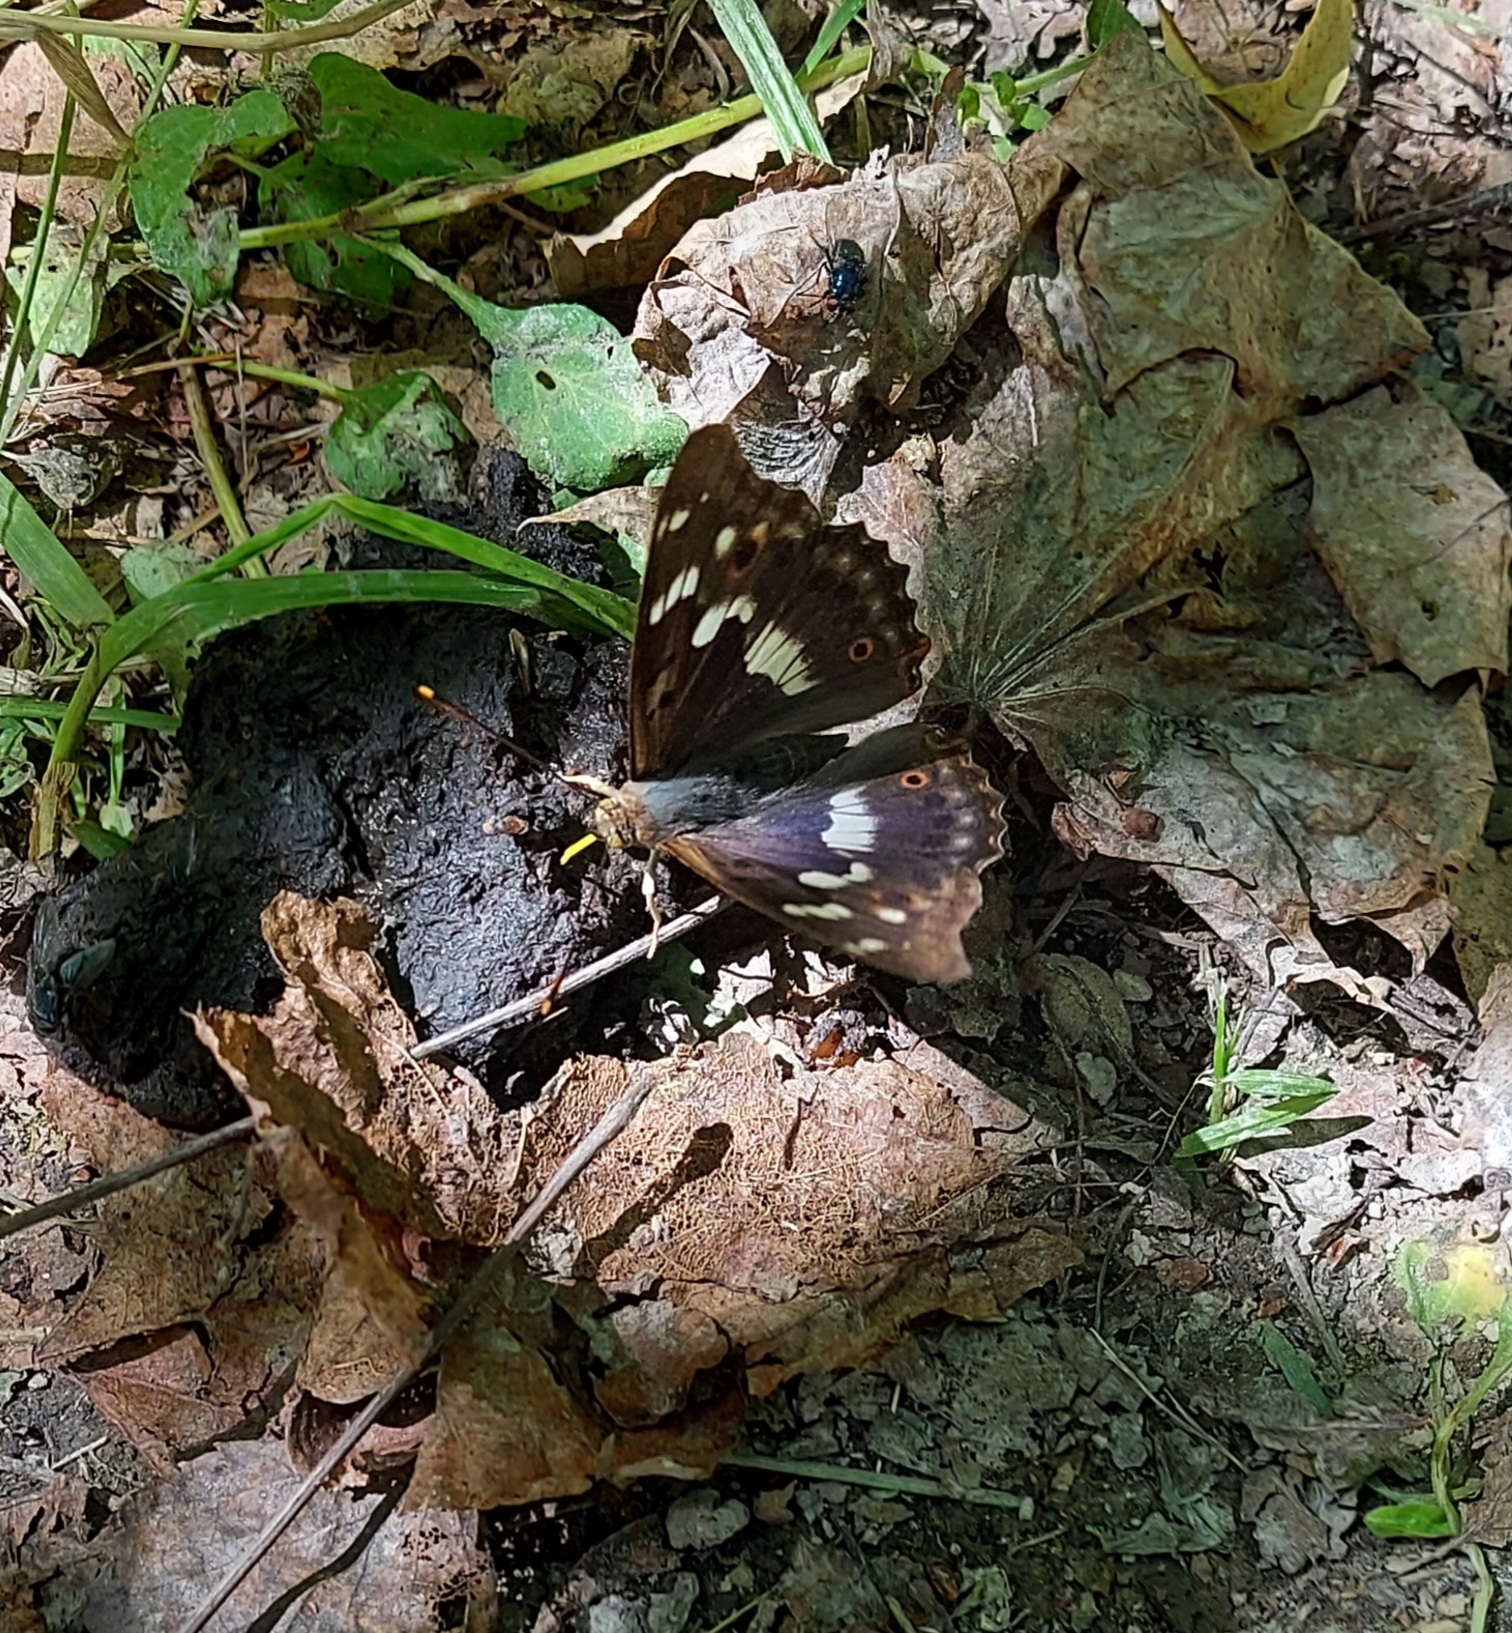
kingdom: Animalia
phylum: Arthropoda
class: Insecta
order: Lepidoptera
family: Nymphalidae
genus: Apatura
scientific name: Apatura ilia
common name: Lesser purple emperor
